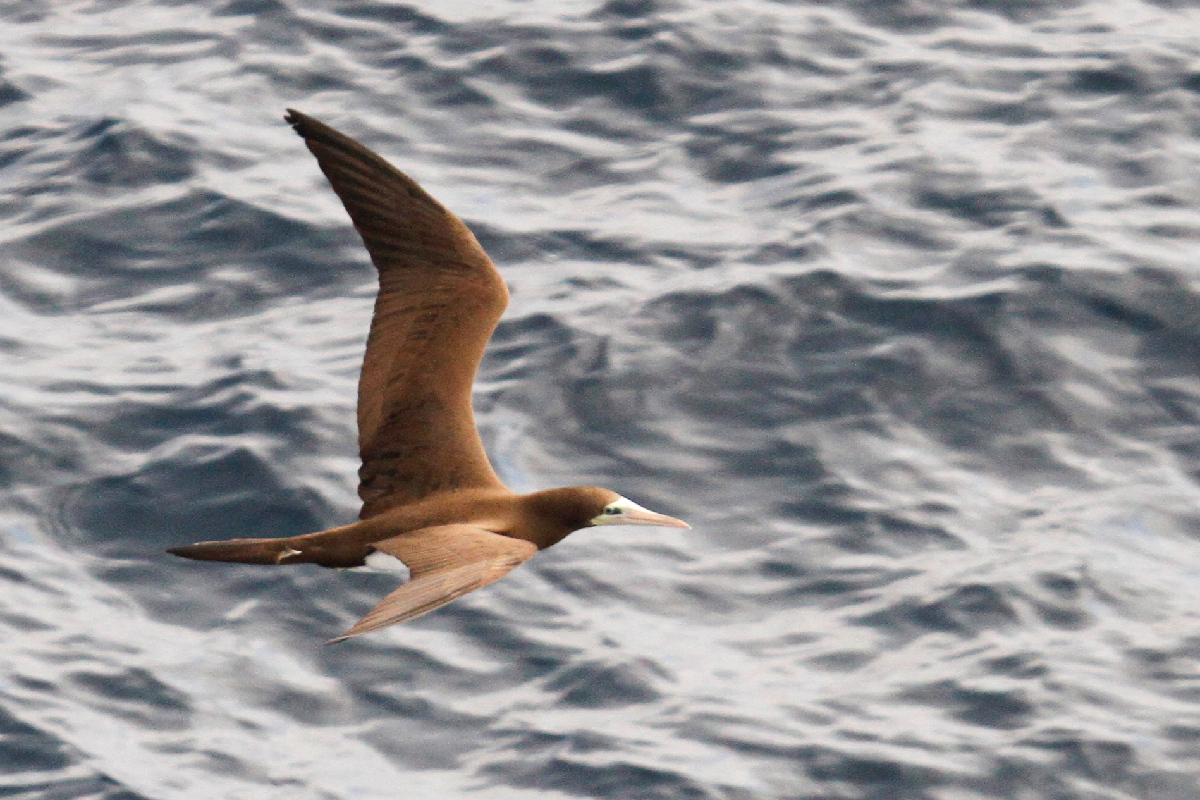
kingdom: Animalia
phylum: Chordata
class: Aves
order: Suliformes
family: Sulidae
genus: Sula
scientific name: Sula leucogaster
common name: Brown booby
